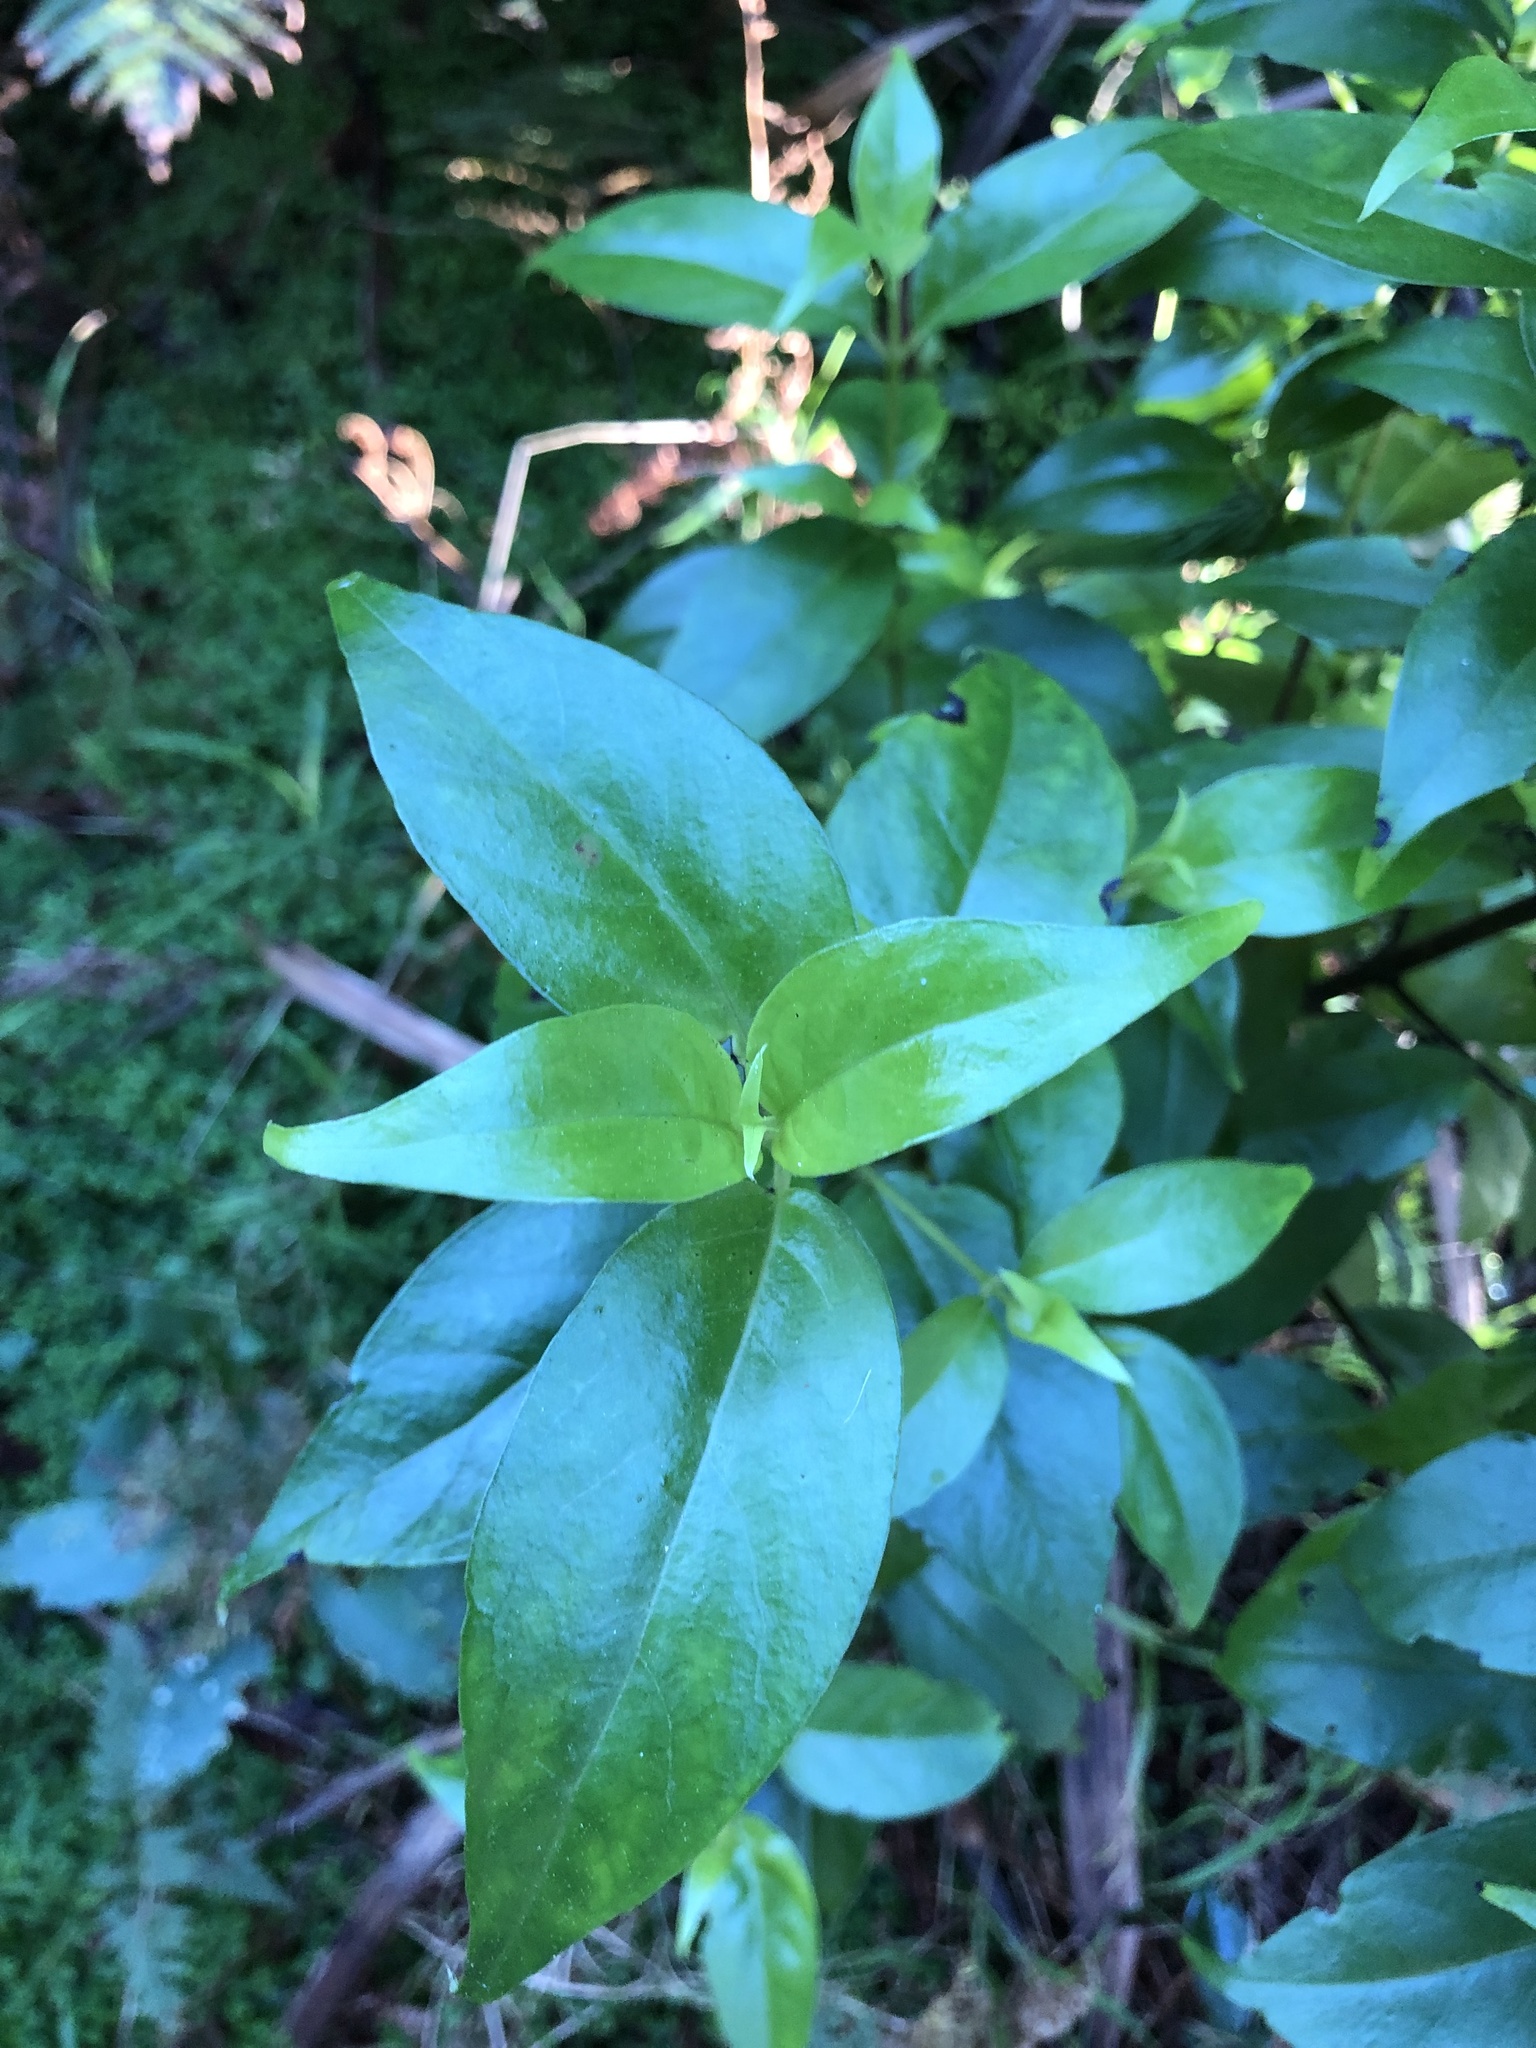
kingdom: Plantae
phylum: Tracheophyta
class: Magnoliopsida
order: Gentianales
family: Loganiaceae
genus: Geniostoma
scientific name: Geniostoma ligustrifolium
